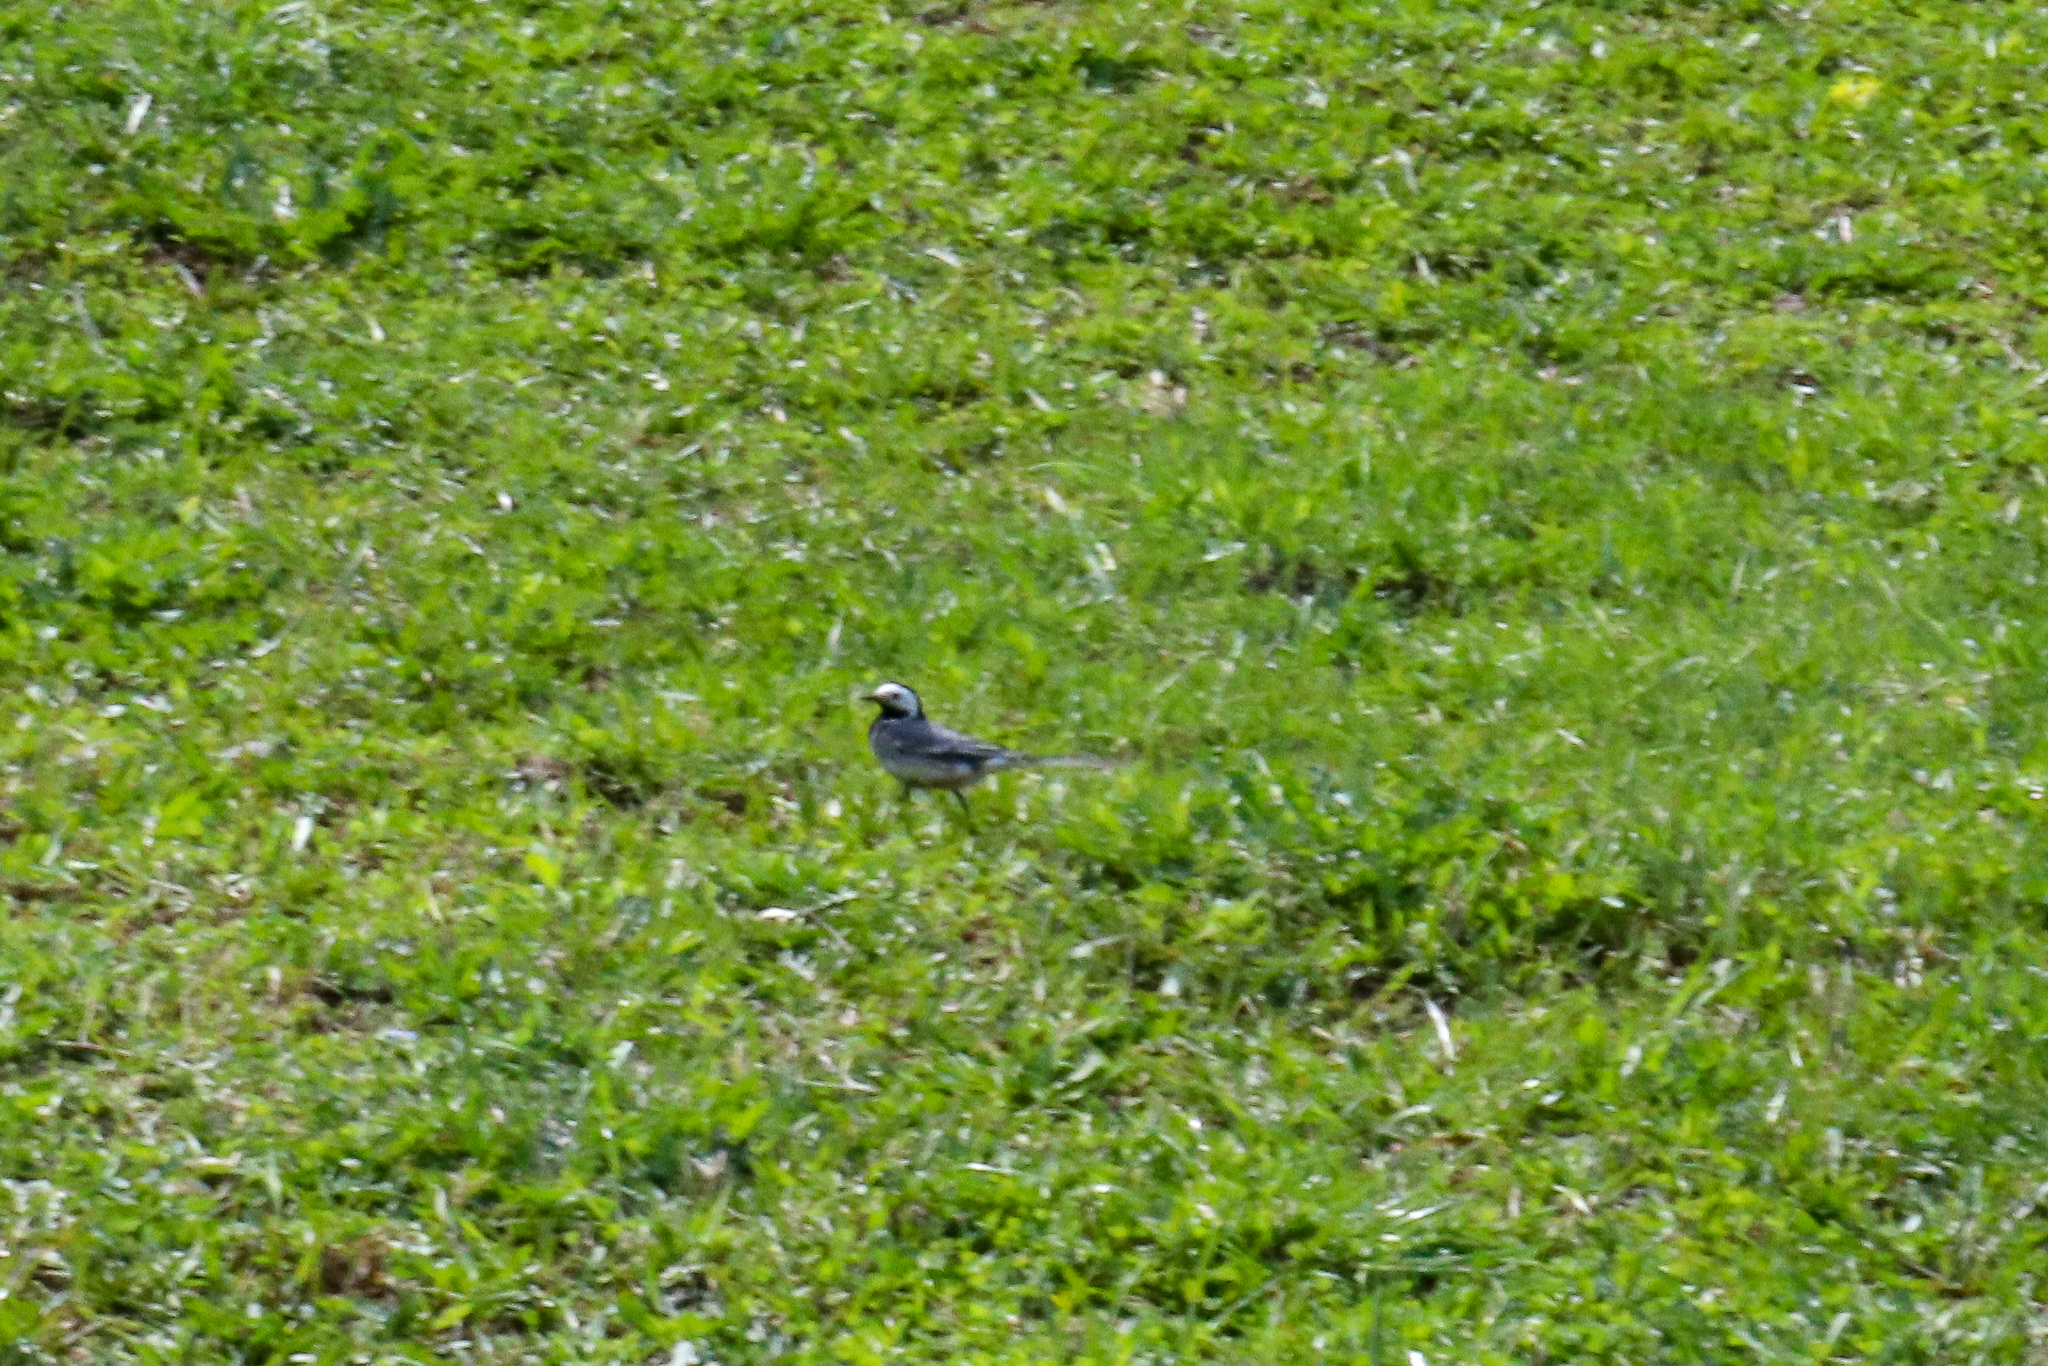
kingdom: Animalia
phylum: Chordata
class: Aves
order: Passeriformes
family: Motacillidae
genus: Motacilla
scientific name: Motacilla alba
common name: White wagtail
